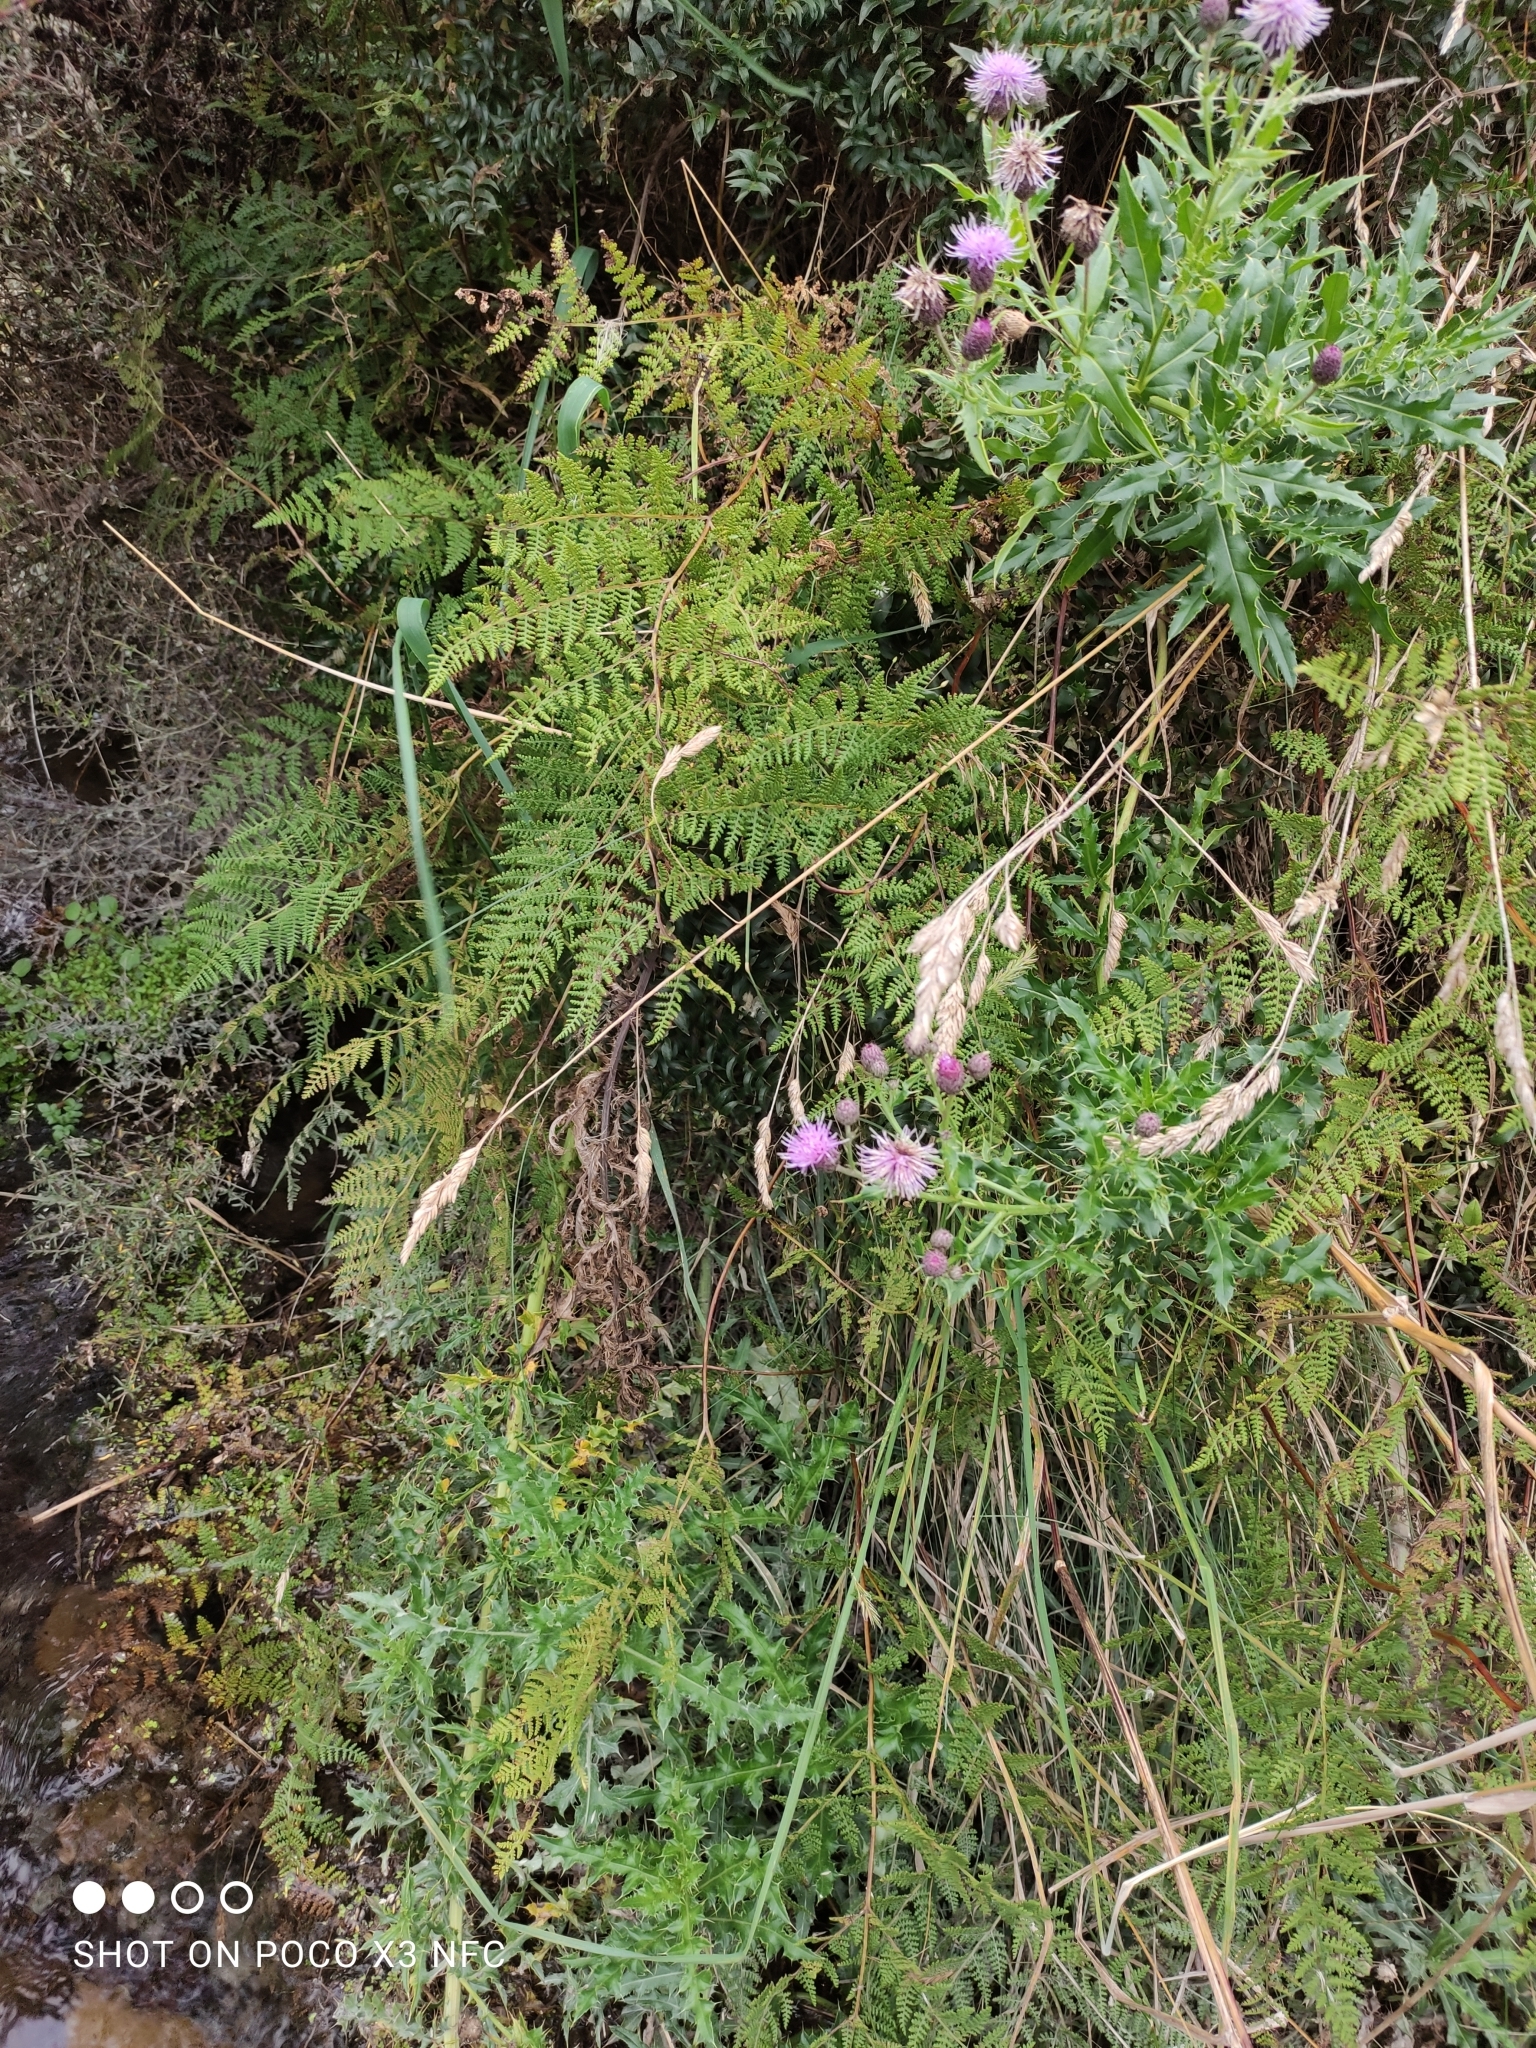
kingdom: Plantae
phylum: Tracheophyta
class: Magnoliopsida
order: Asterales
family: Asteraceae
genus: Cirsium
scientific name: Cirsium arvense
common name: Creeping thistle
